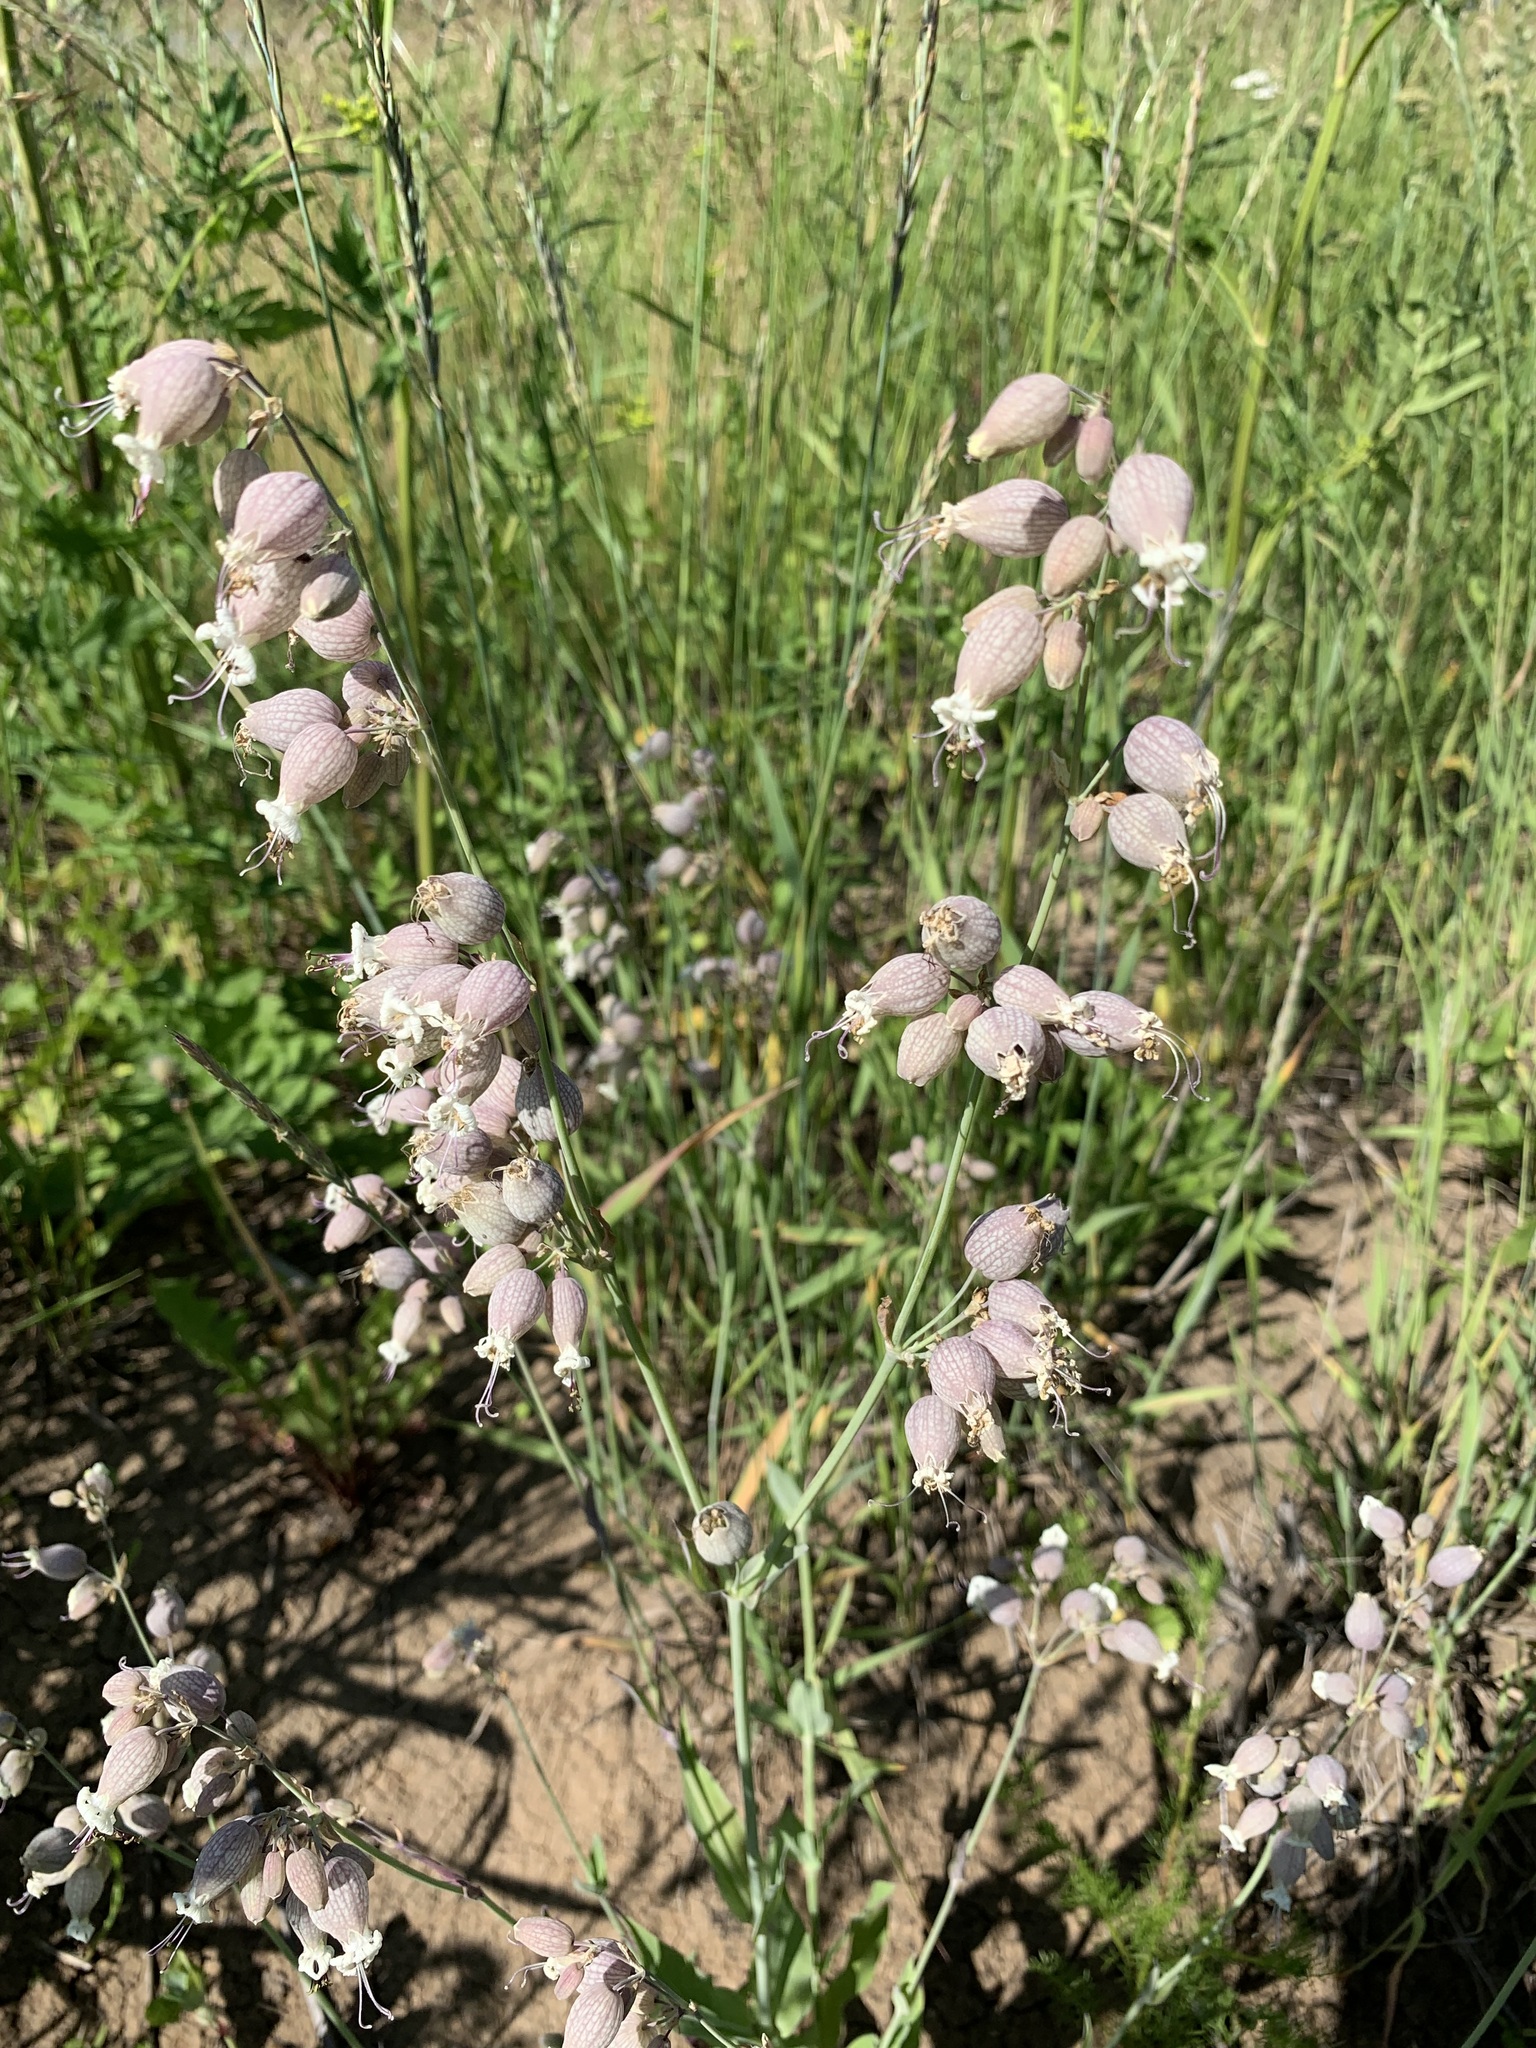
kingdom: Plantae
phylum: Tracheophyta
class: Magnoliopsida
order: Caryophyllales
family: Caryophyllaceae
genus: Silene
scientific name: Silene vulgaris
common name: Bladder campion
